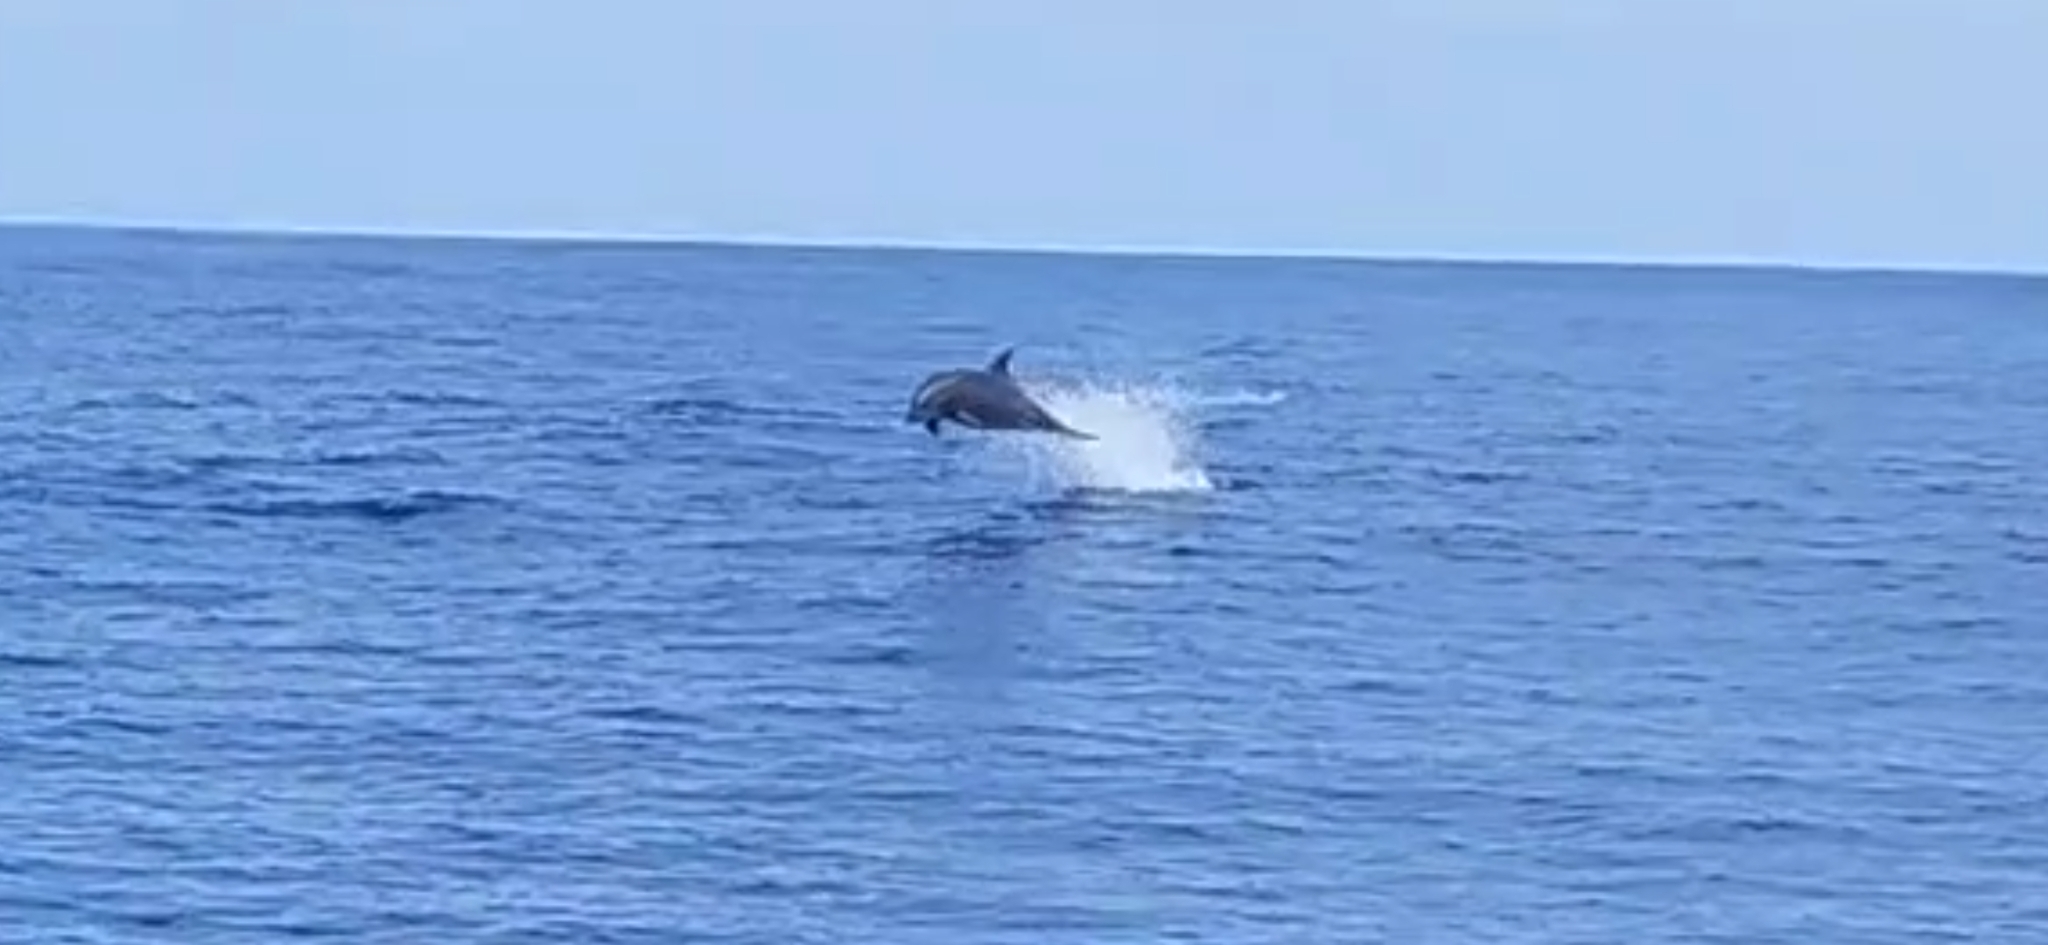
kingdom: Animalia
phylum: Chordata
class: Mammalia
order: Cetacea
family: Delphinidae
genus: Tursiops
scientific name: Tursiops truncatus
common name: Bottlenose dolphin
